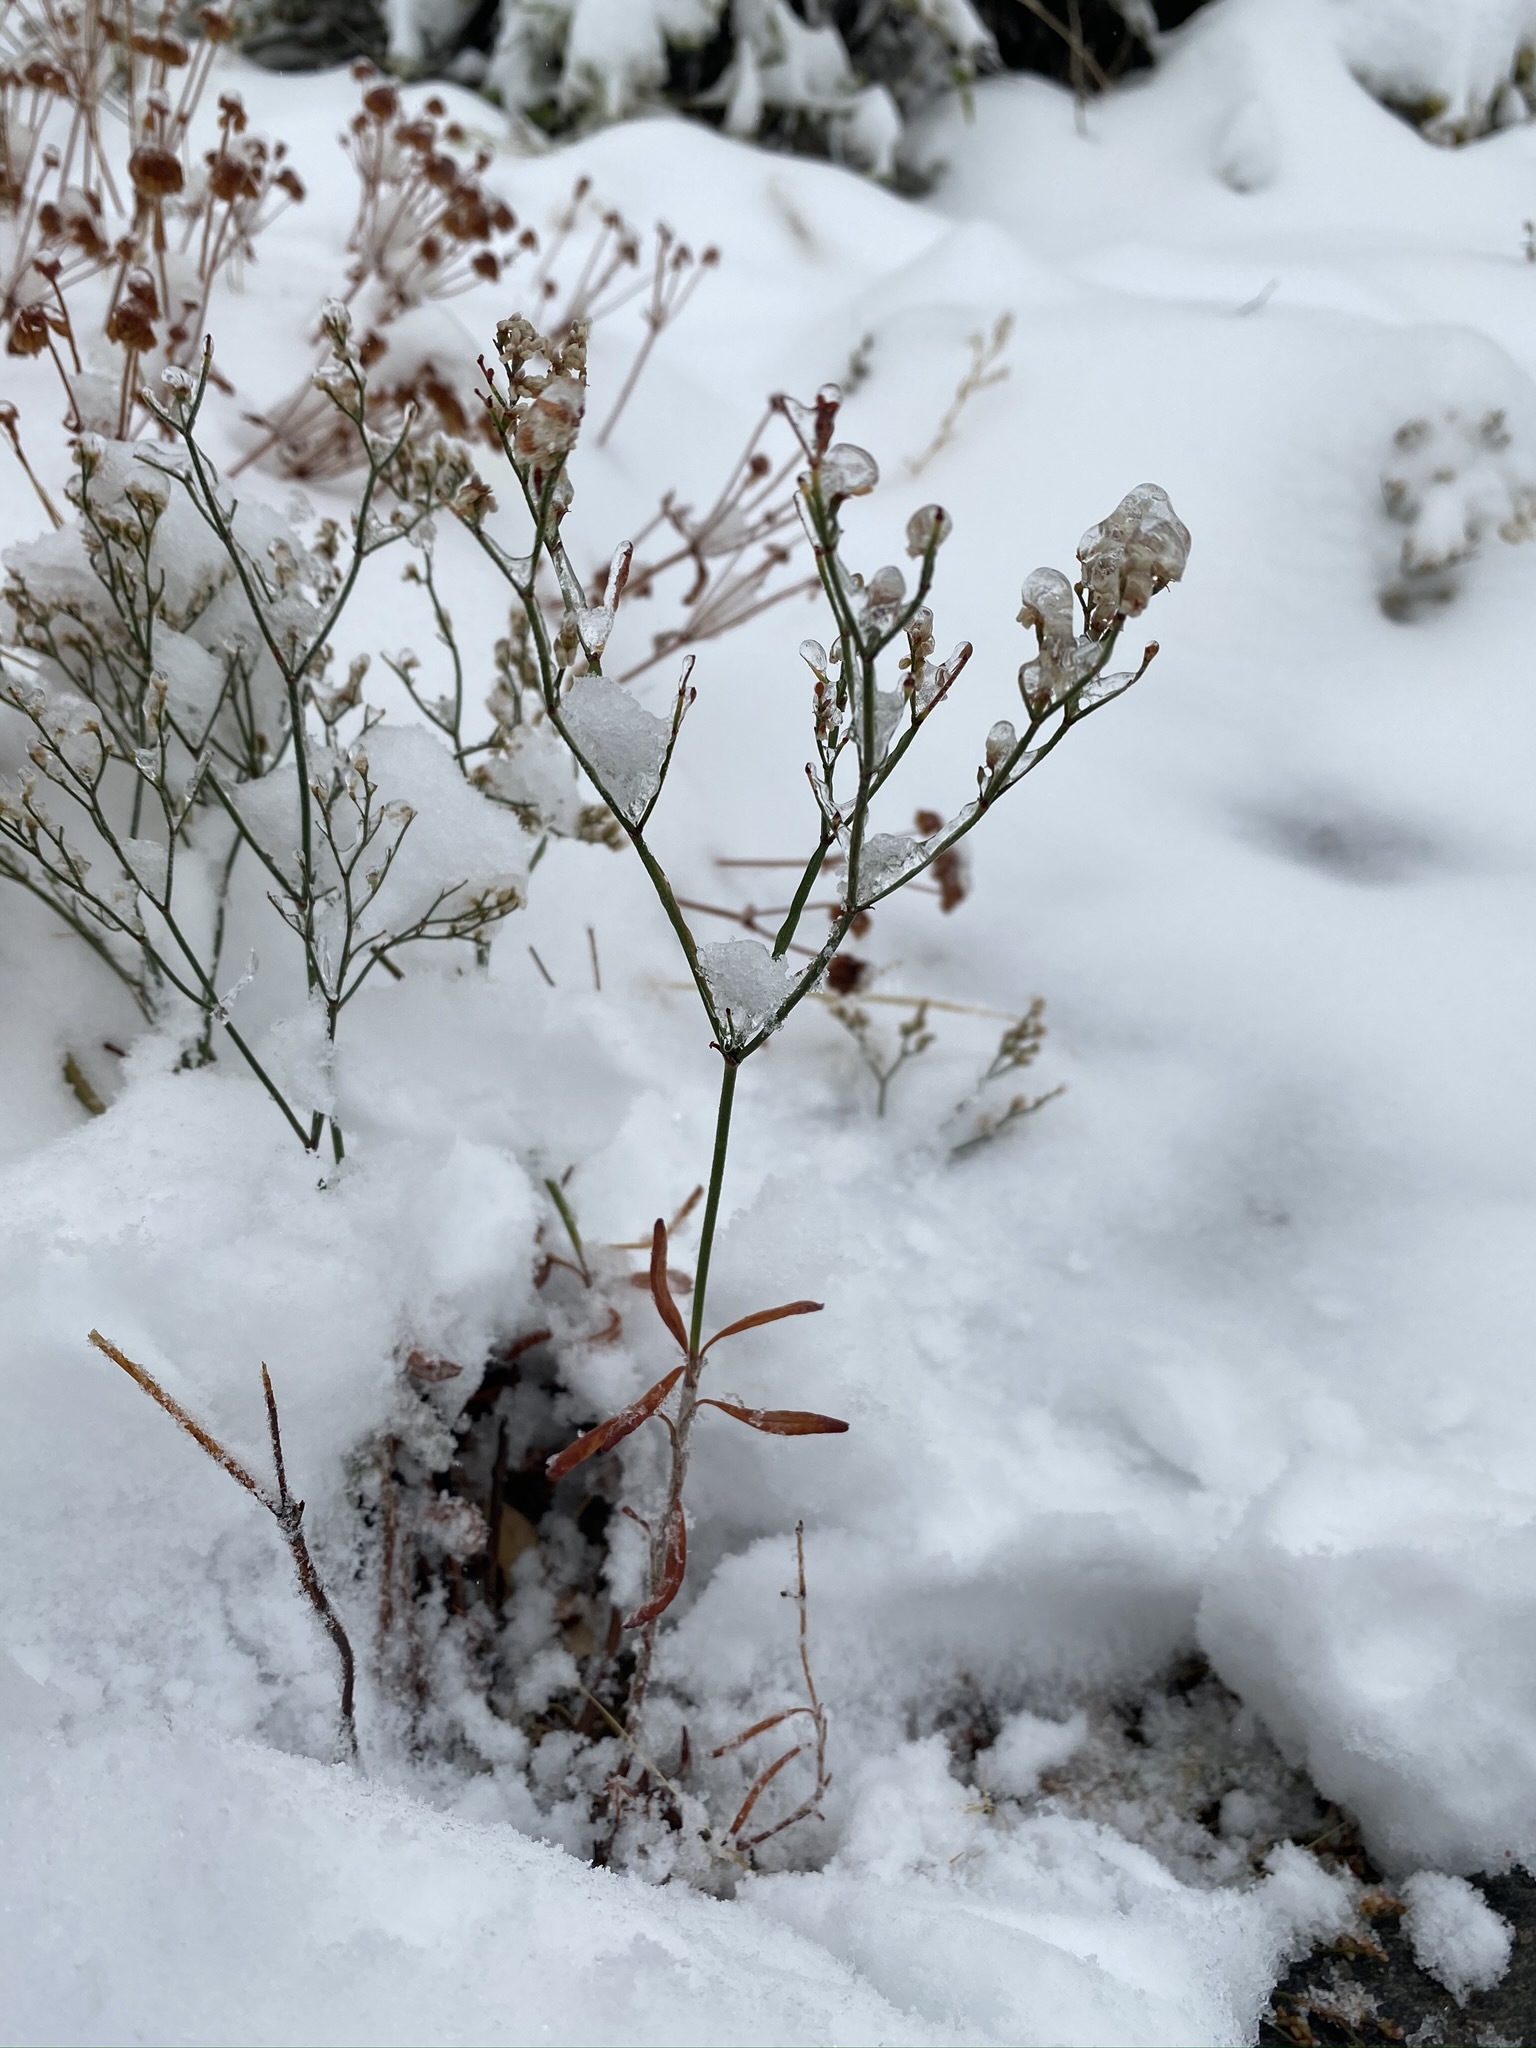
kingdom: Plantae
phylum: Tracheophyta
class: Magnoliopsida
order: Caryophyllales
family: Polygonaceae
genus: Eriogonum
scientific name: Eriogonum effusum
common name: Spreading wild buckwheat
